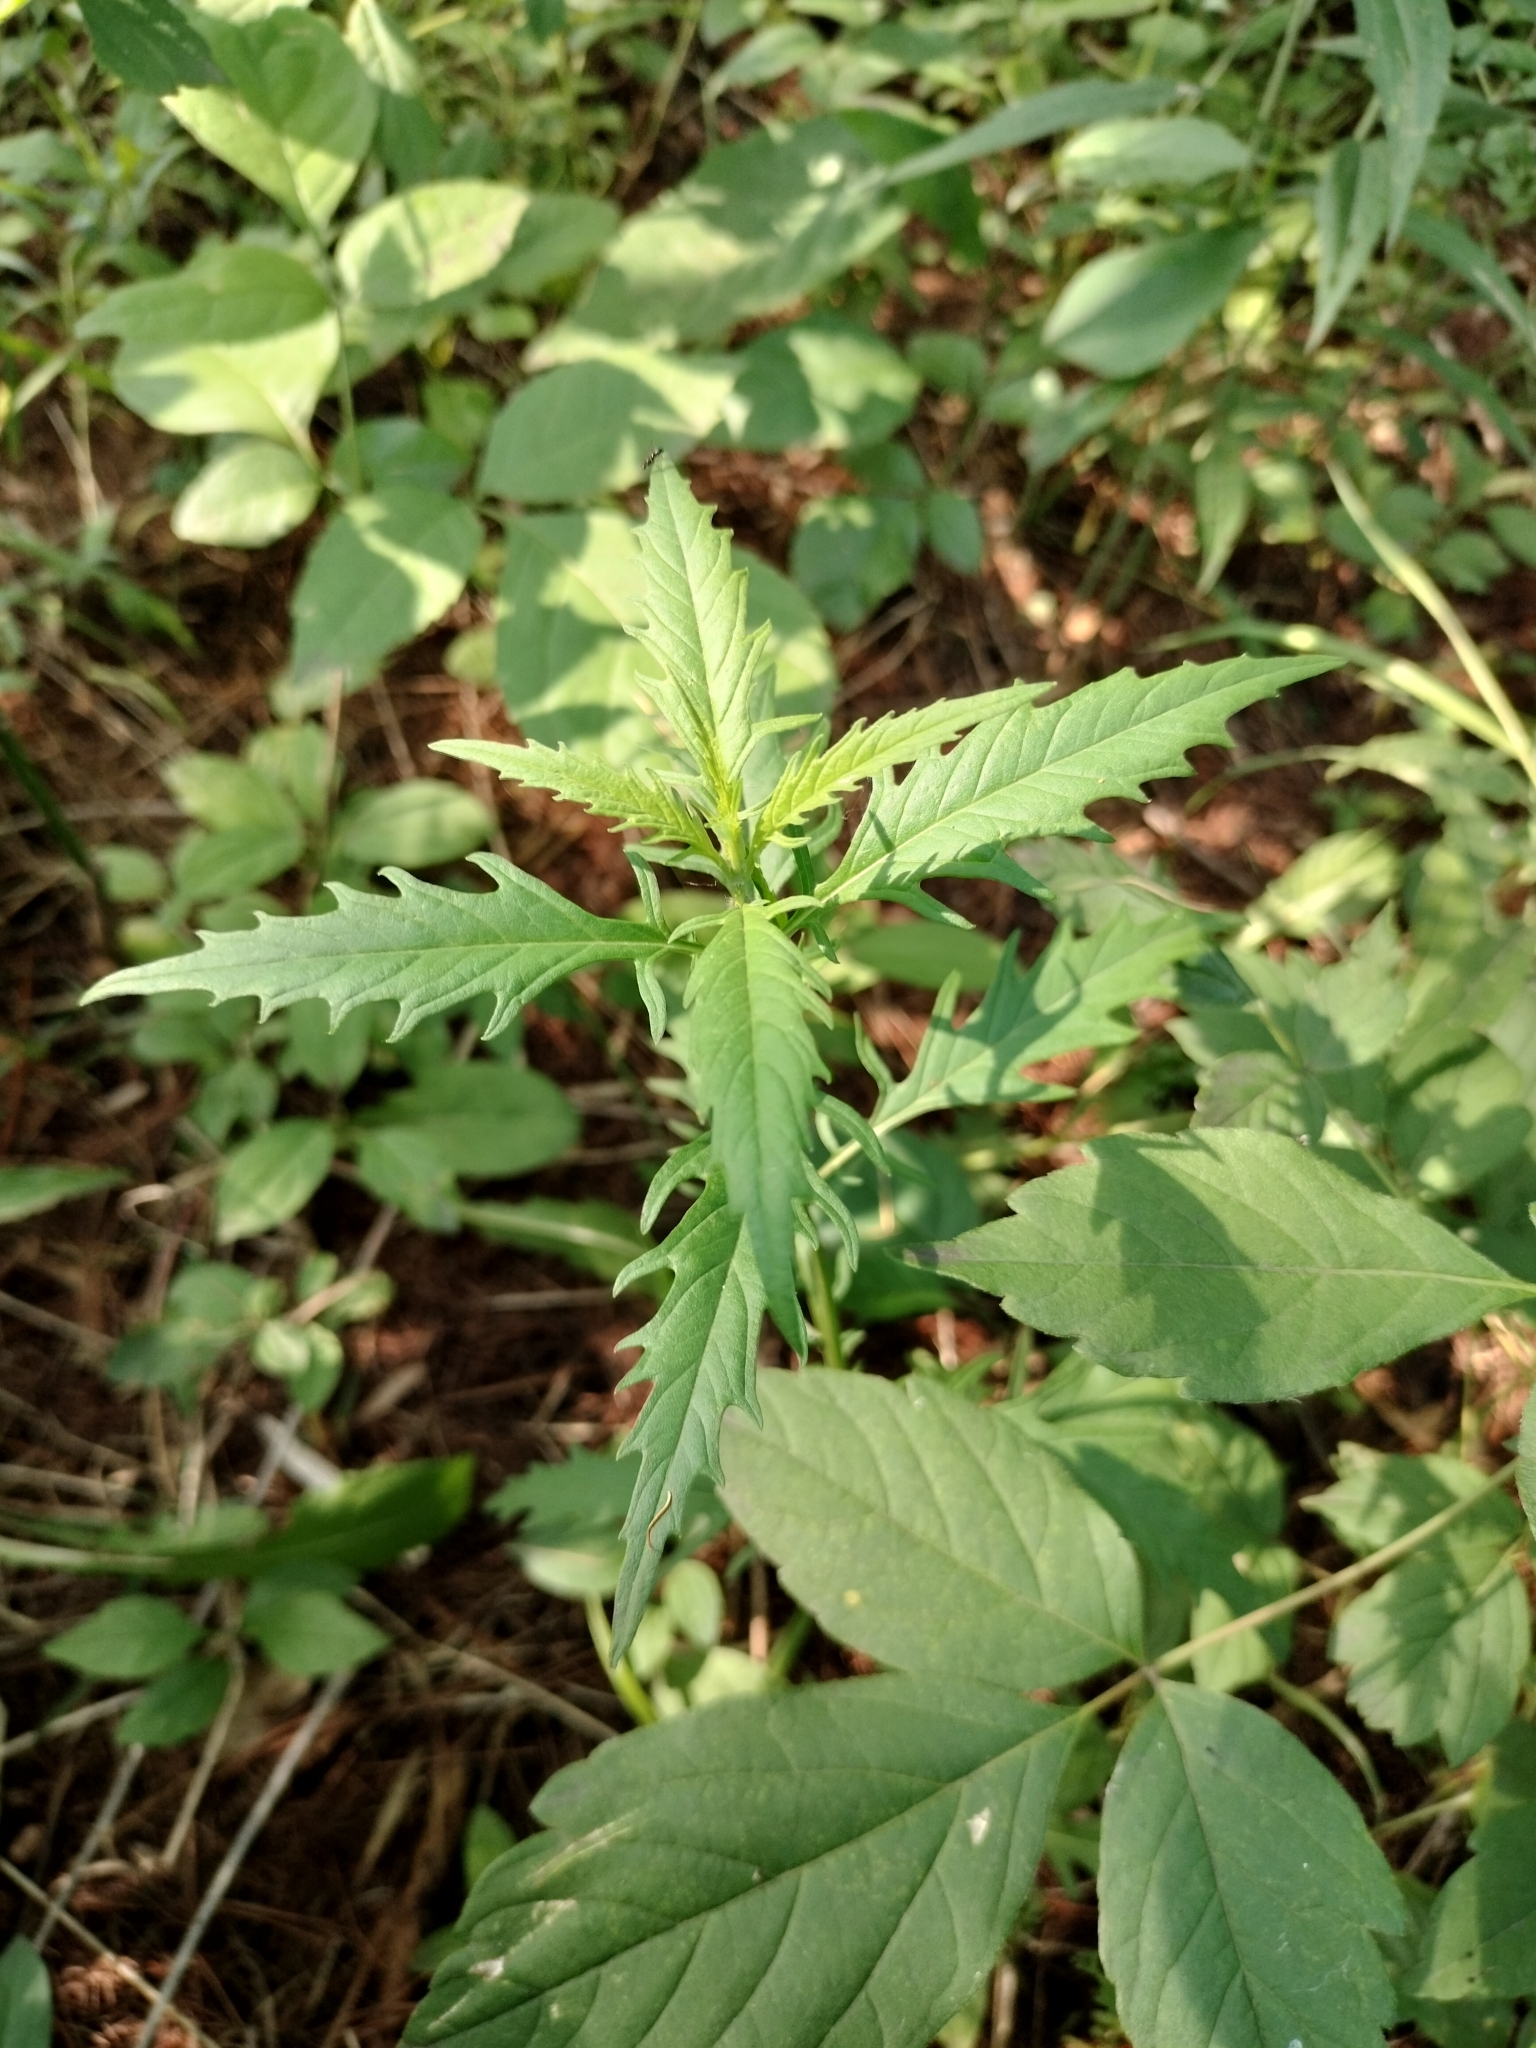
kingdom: Plantae
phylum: Tracheophyta
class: Magnoliopsida
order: Lamiales
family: Lamiaceae
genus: Lycopus
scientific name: Lycopus americanus
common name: American bugleweed
